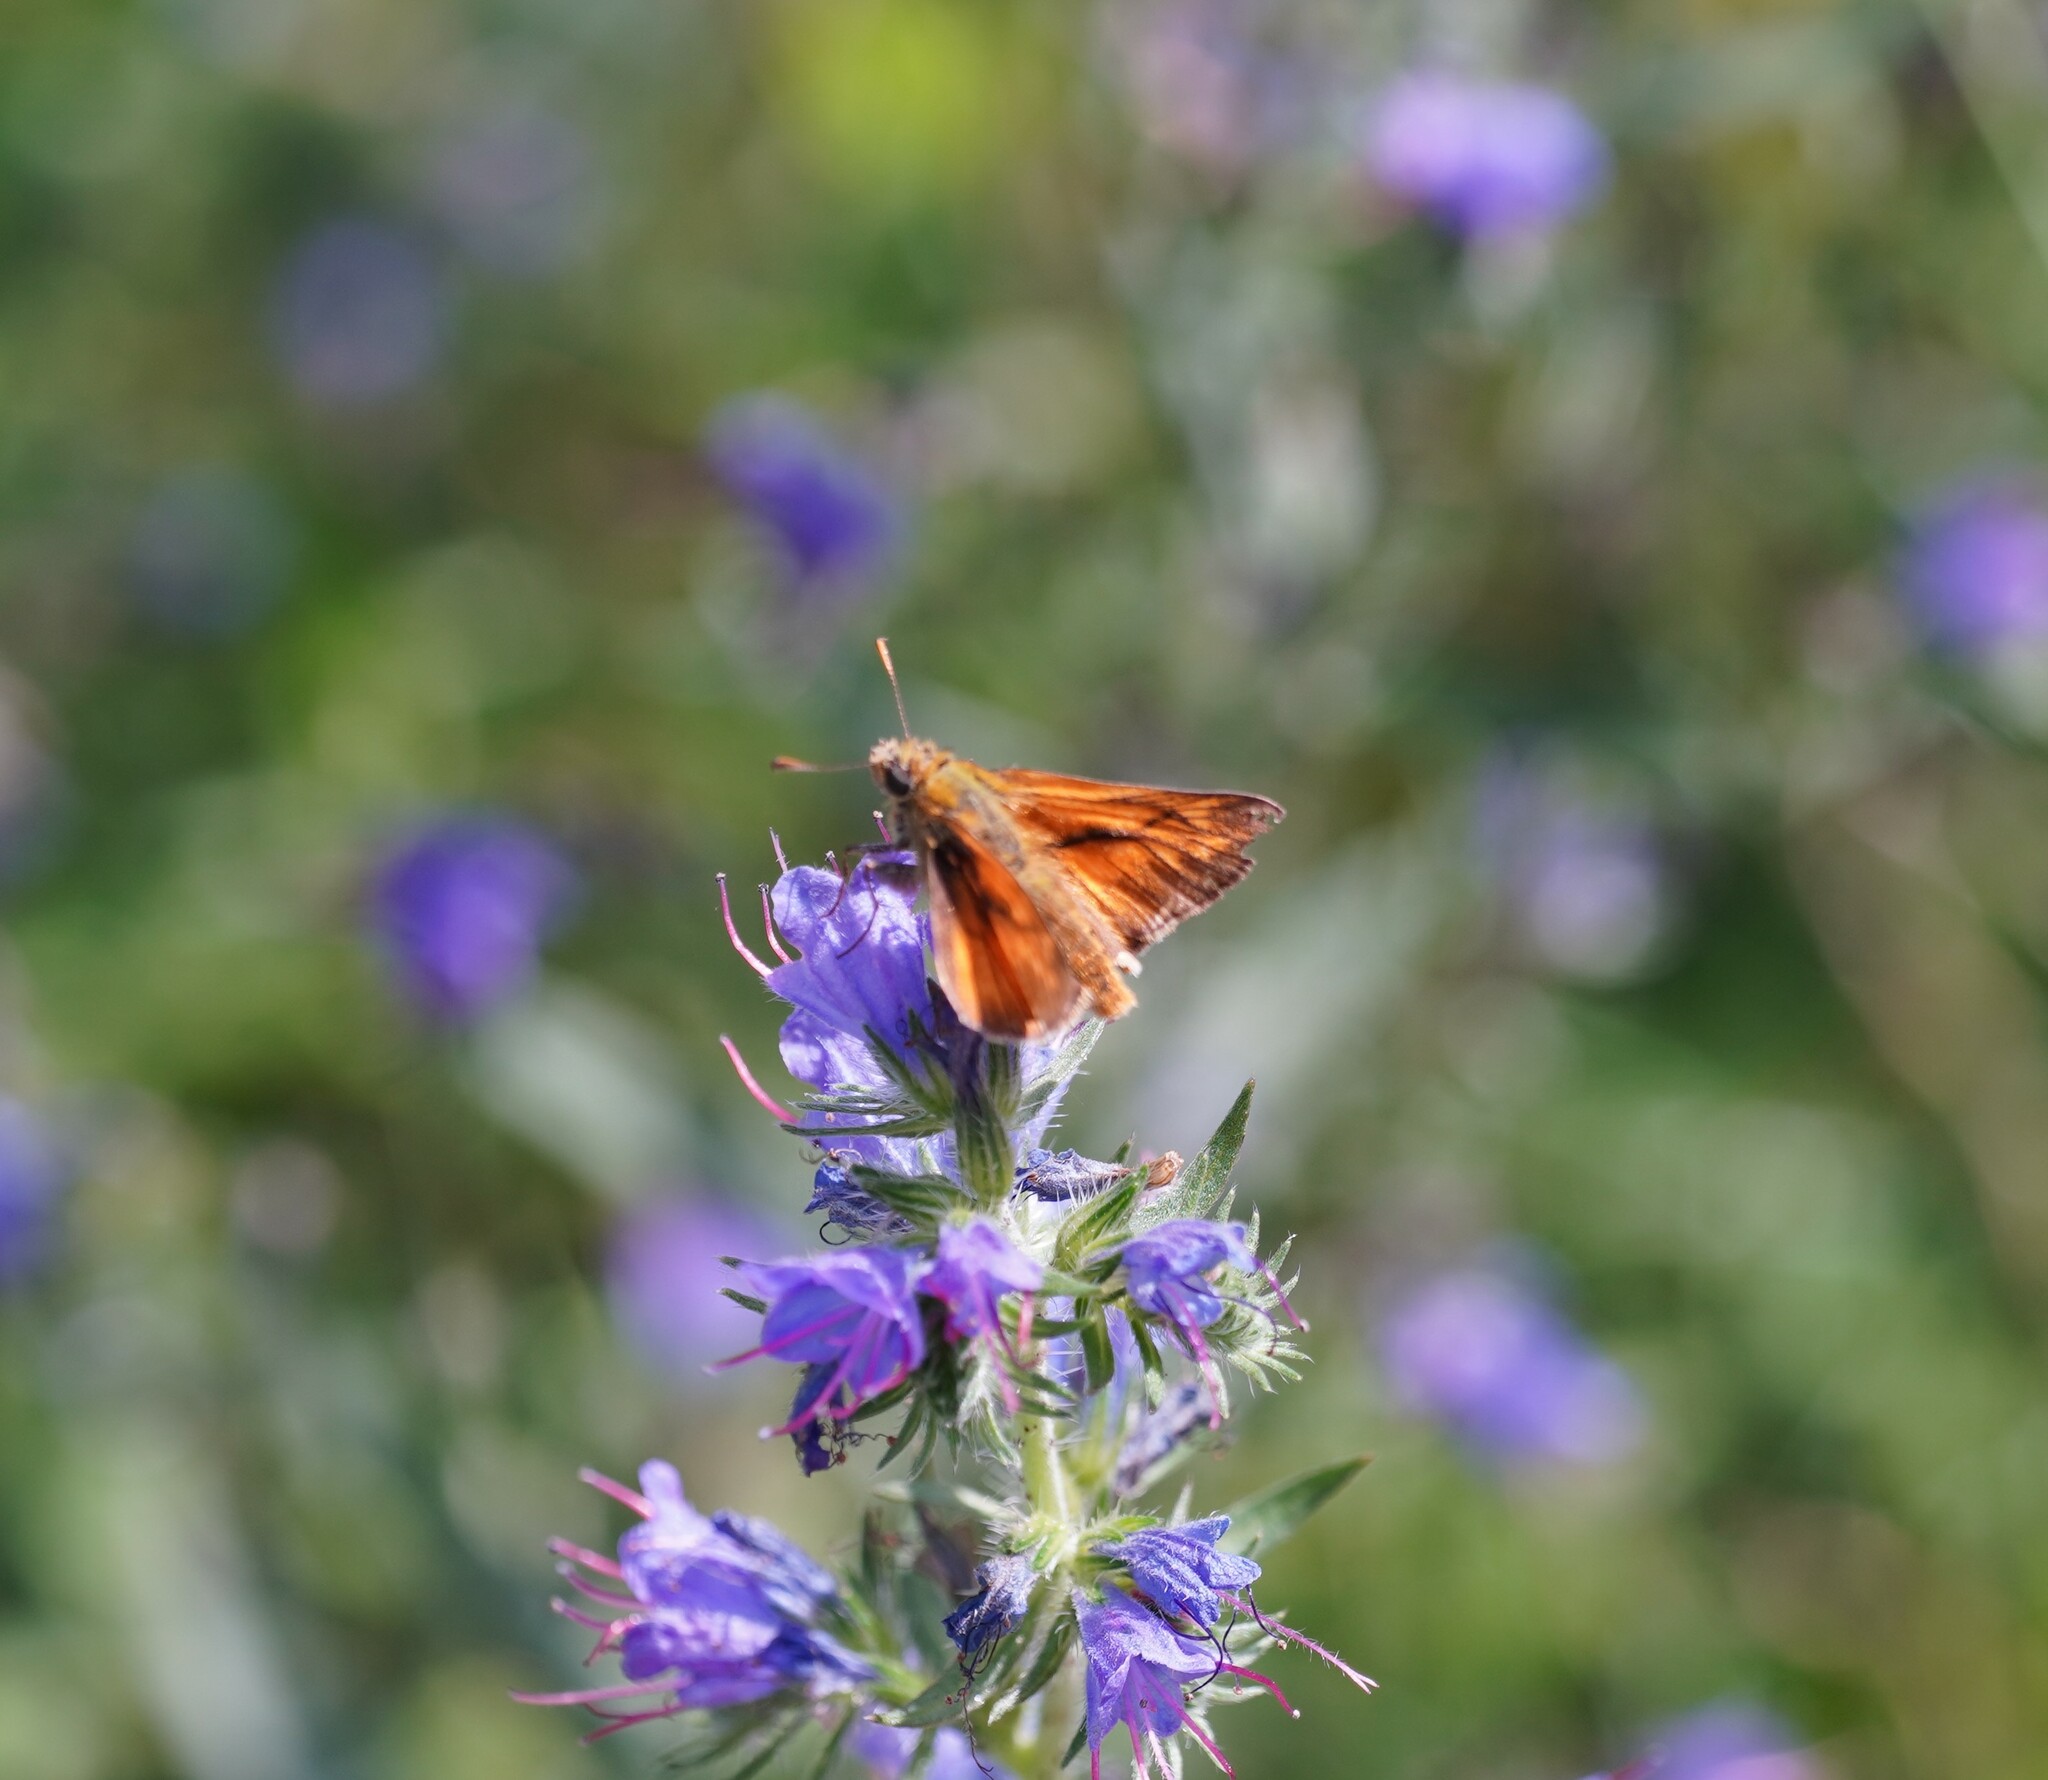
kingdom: Animalia
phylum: Arthropoda
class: Insecta
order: Lepidoptera
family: Hesperiidae
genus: Ochlodes
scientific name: Ochlodes venata
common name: Large skipper
